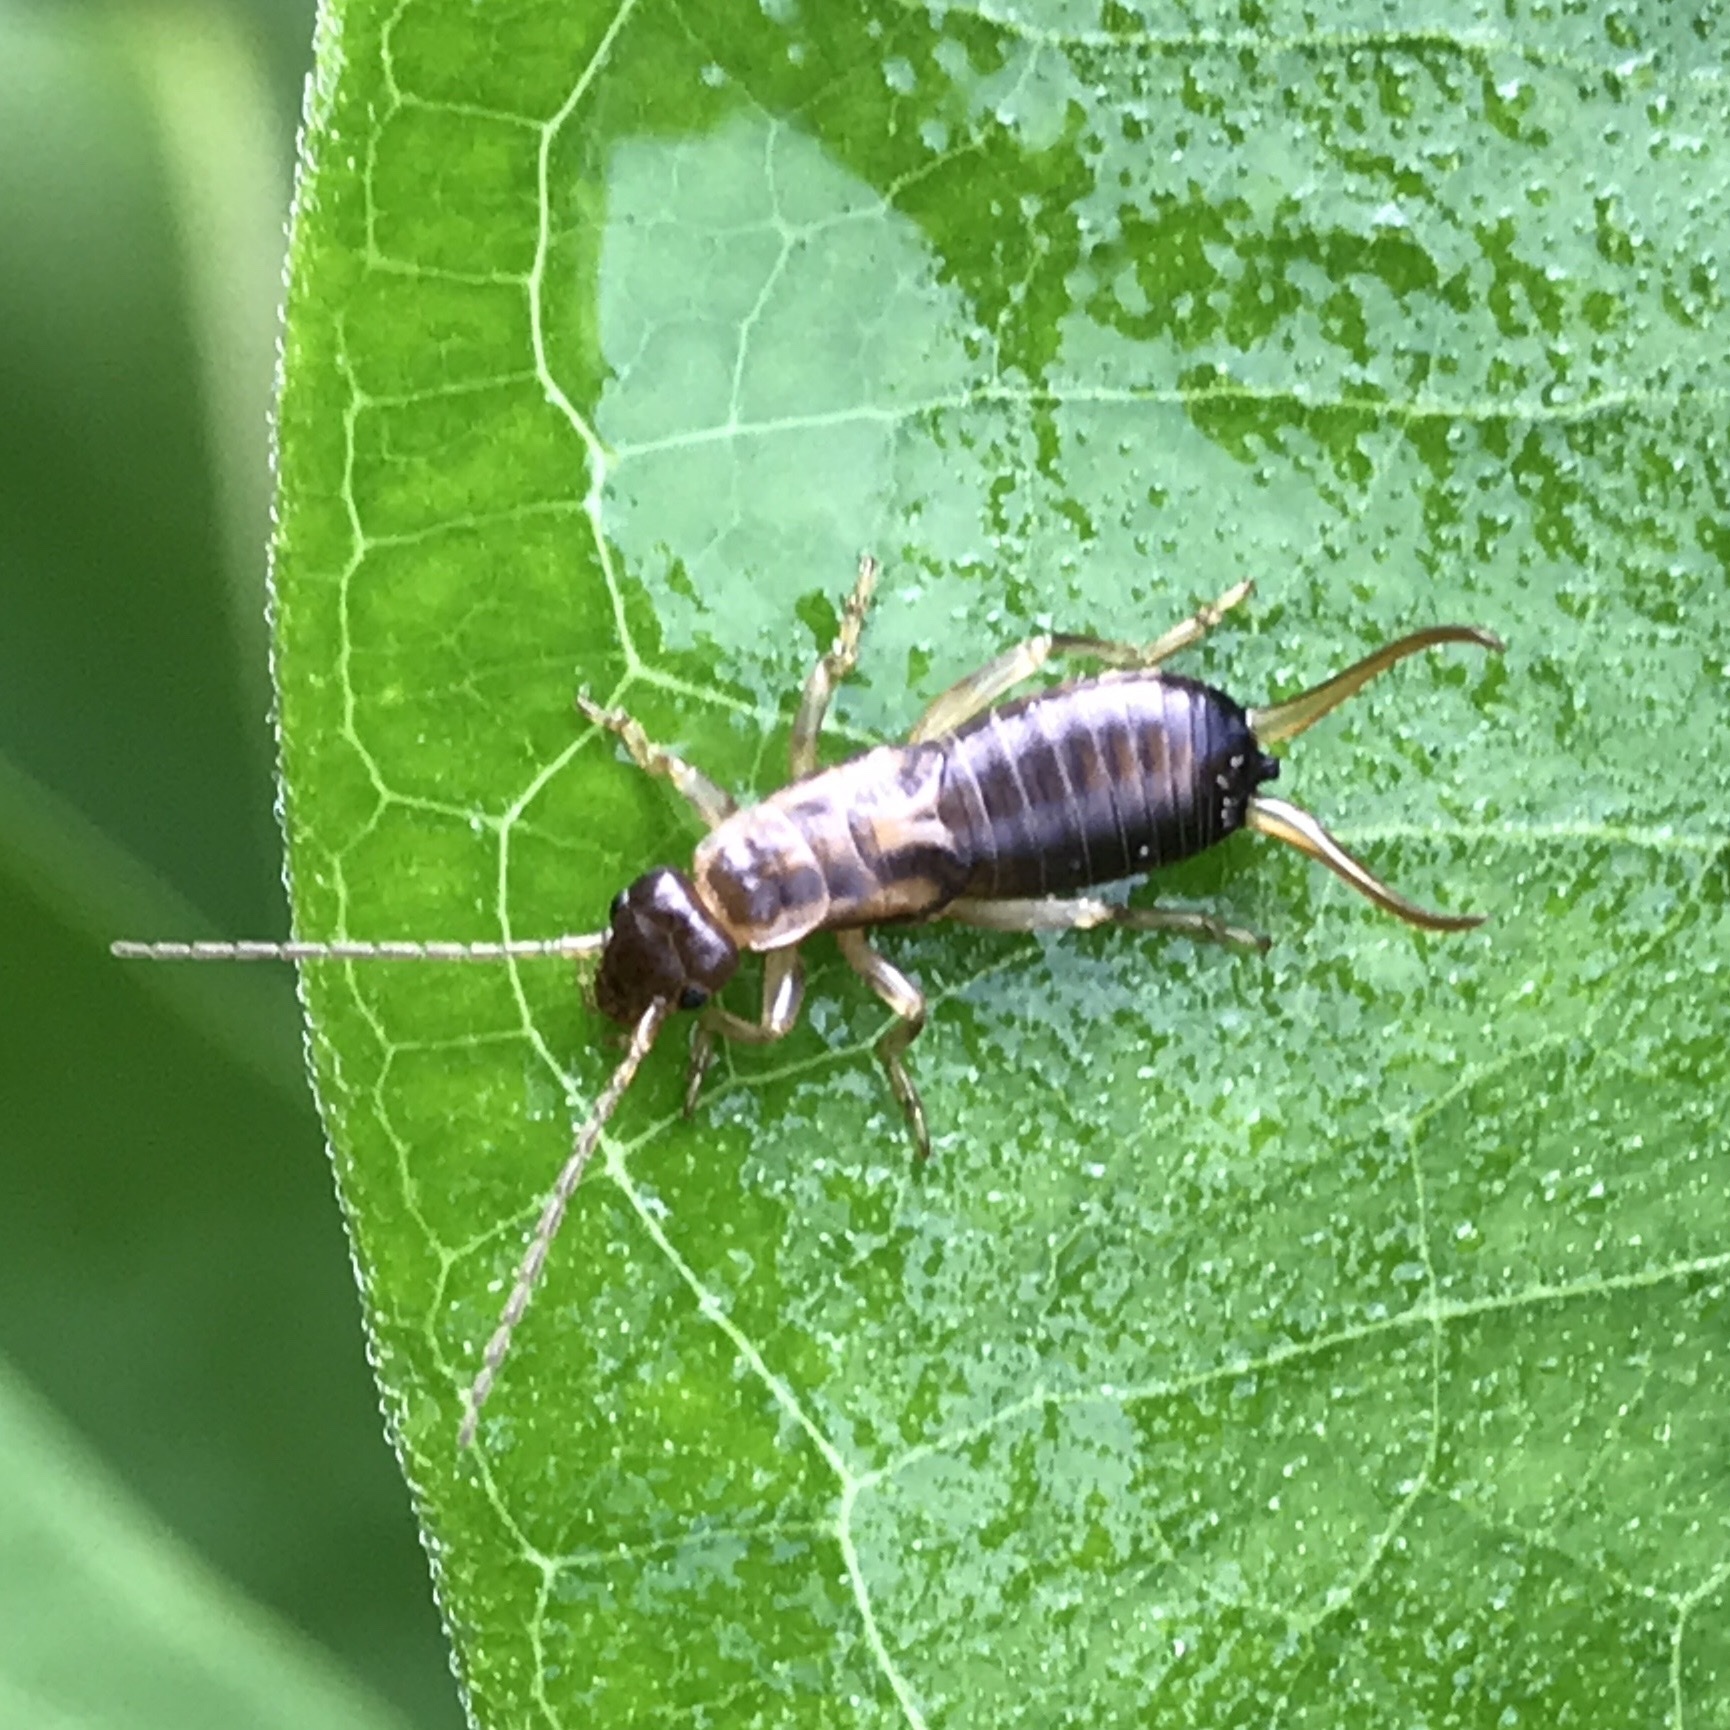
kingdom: Animalia
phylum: Arthropoda
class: Insecta
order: Dermaptera
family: Forficulidae
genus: Forficula
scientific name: Forficula
